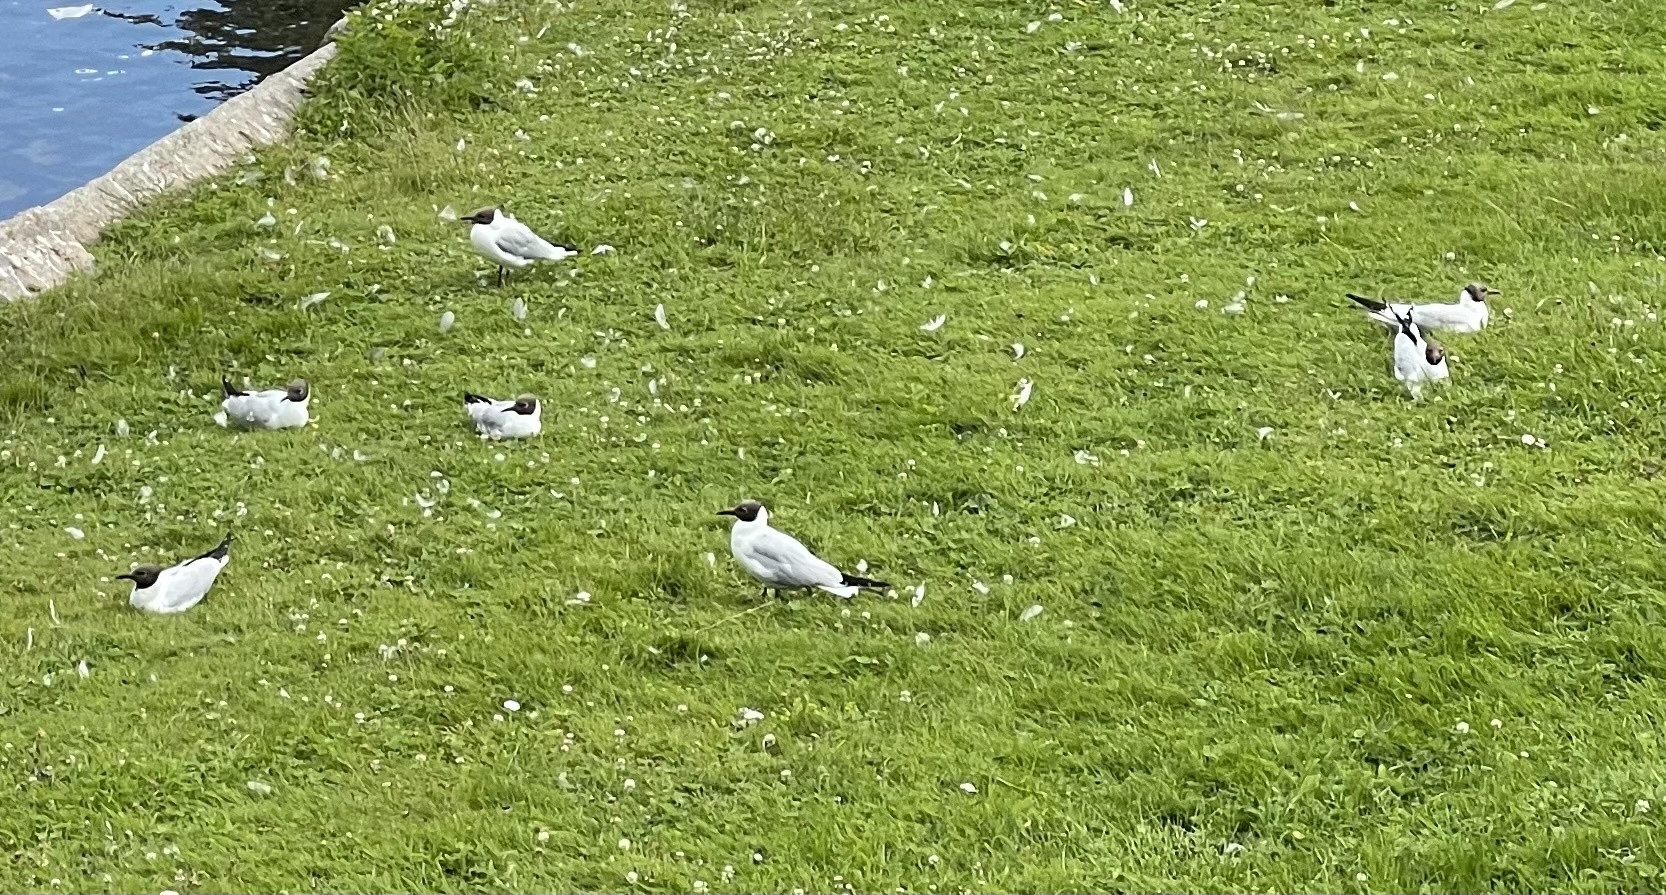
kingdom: Animalia
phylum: Chordata
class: Aves
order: Charadriiformes
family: Laridae
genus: Chroicocephalus
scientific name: Chroicocephalus ridibundus
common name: Black-headed gull
